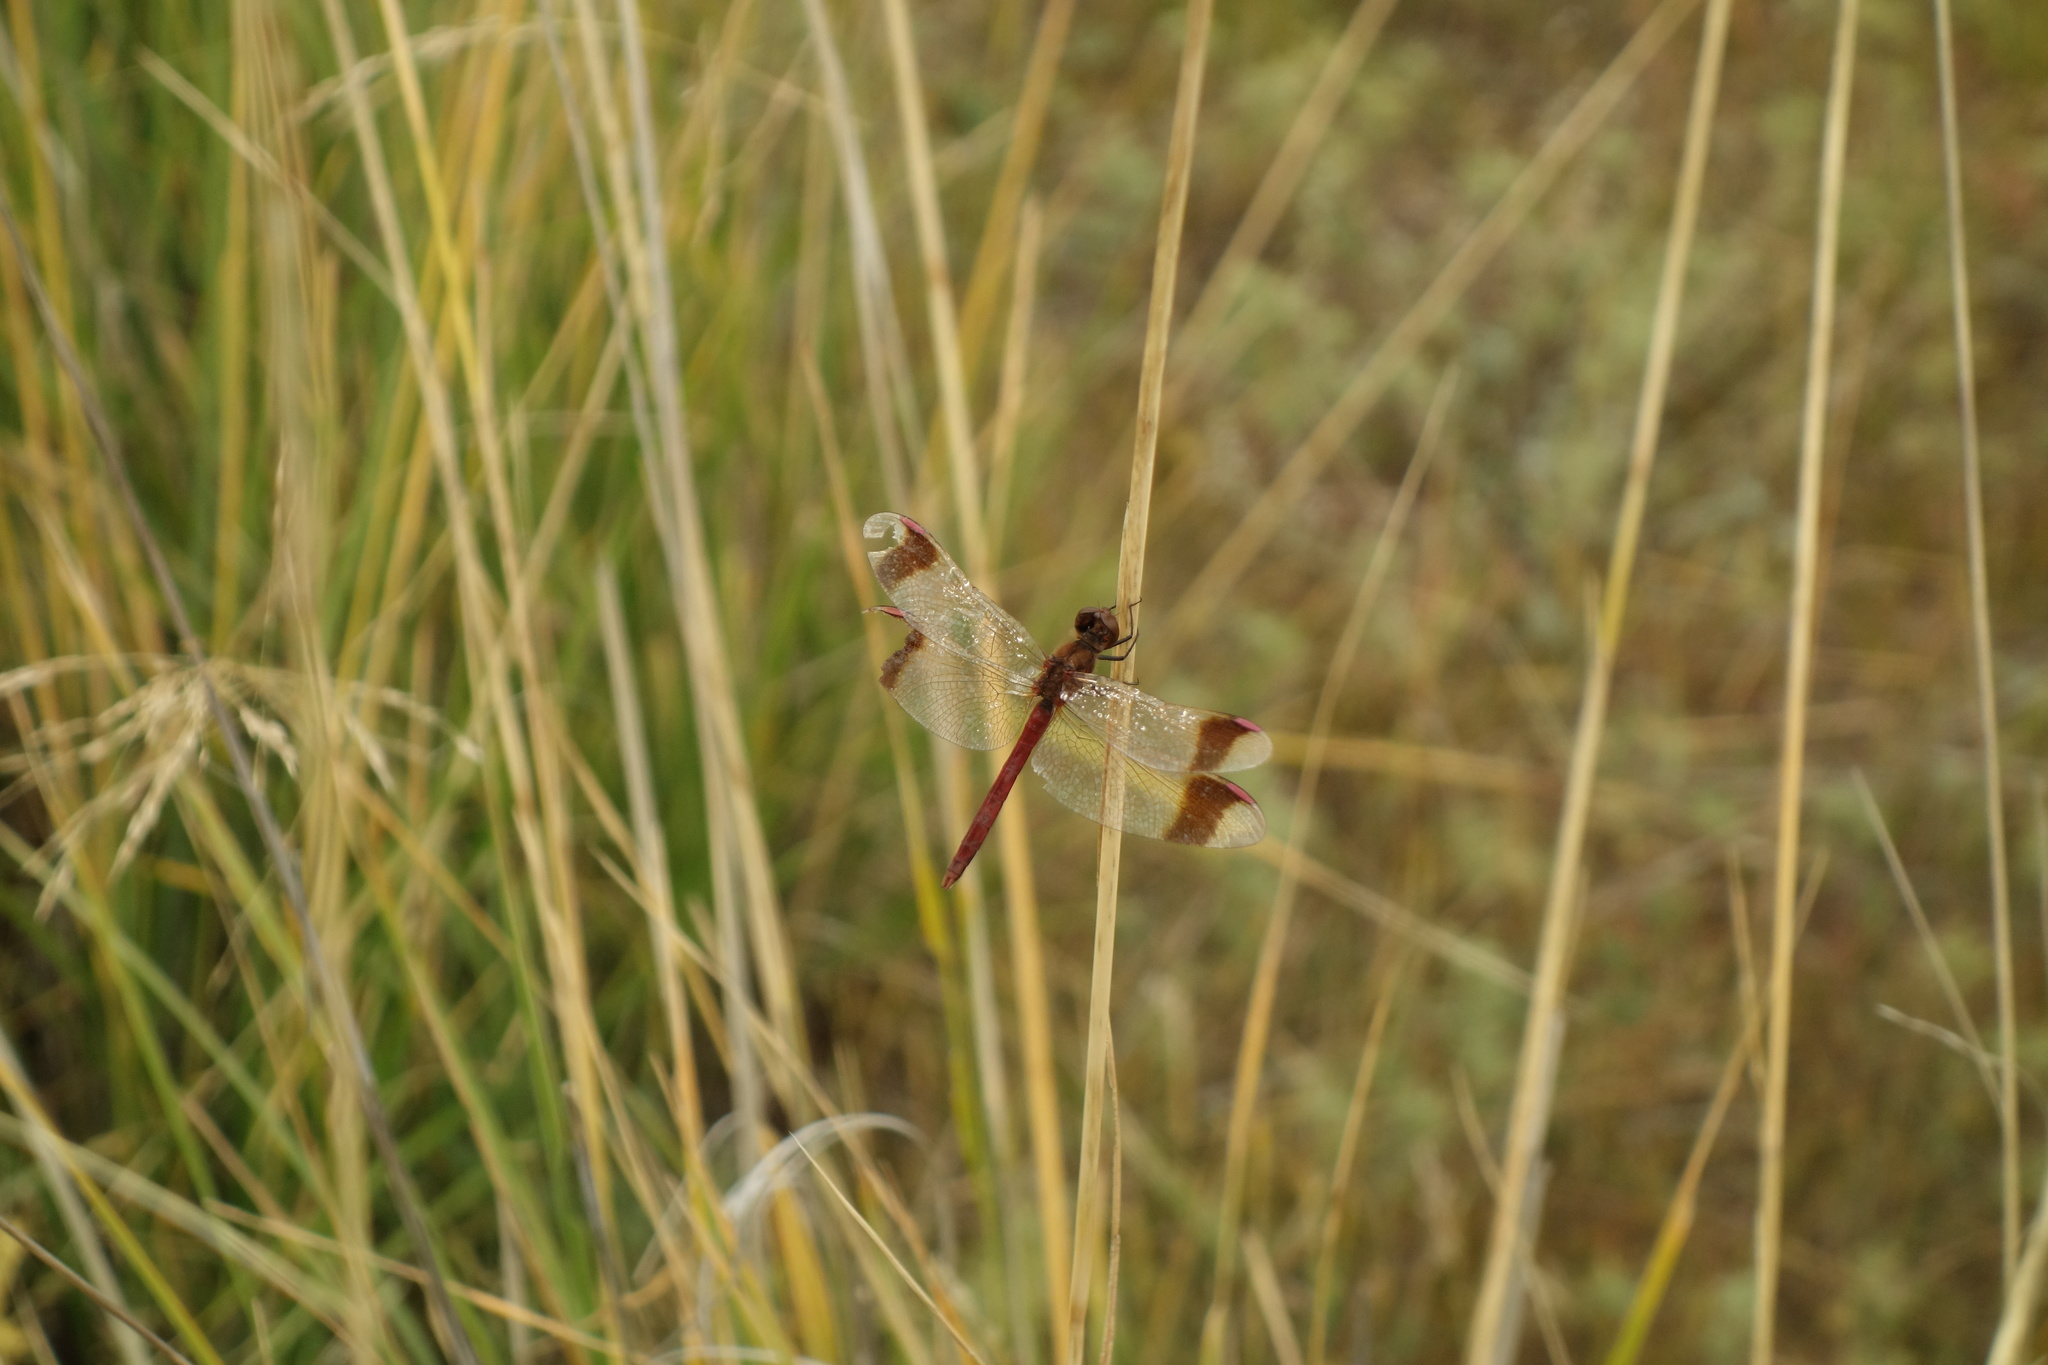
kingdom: Animalia
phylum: Arthropoda
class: Insecta
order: Odonata
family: Libellulidae
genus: Sympetrum
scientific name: Sympetrum pedemontanum
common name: Banded darter
